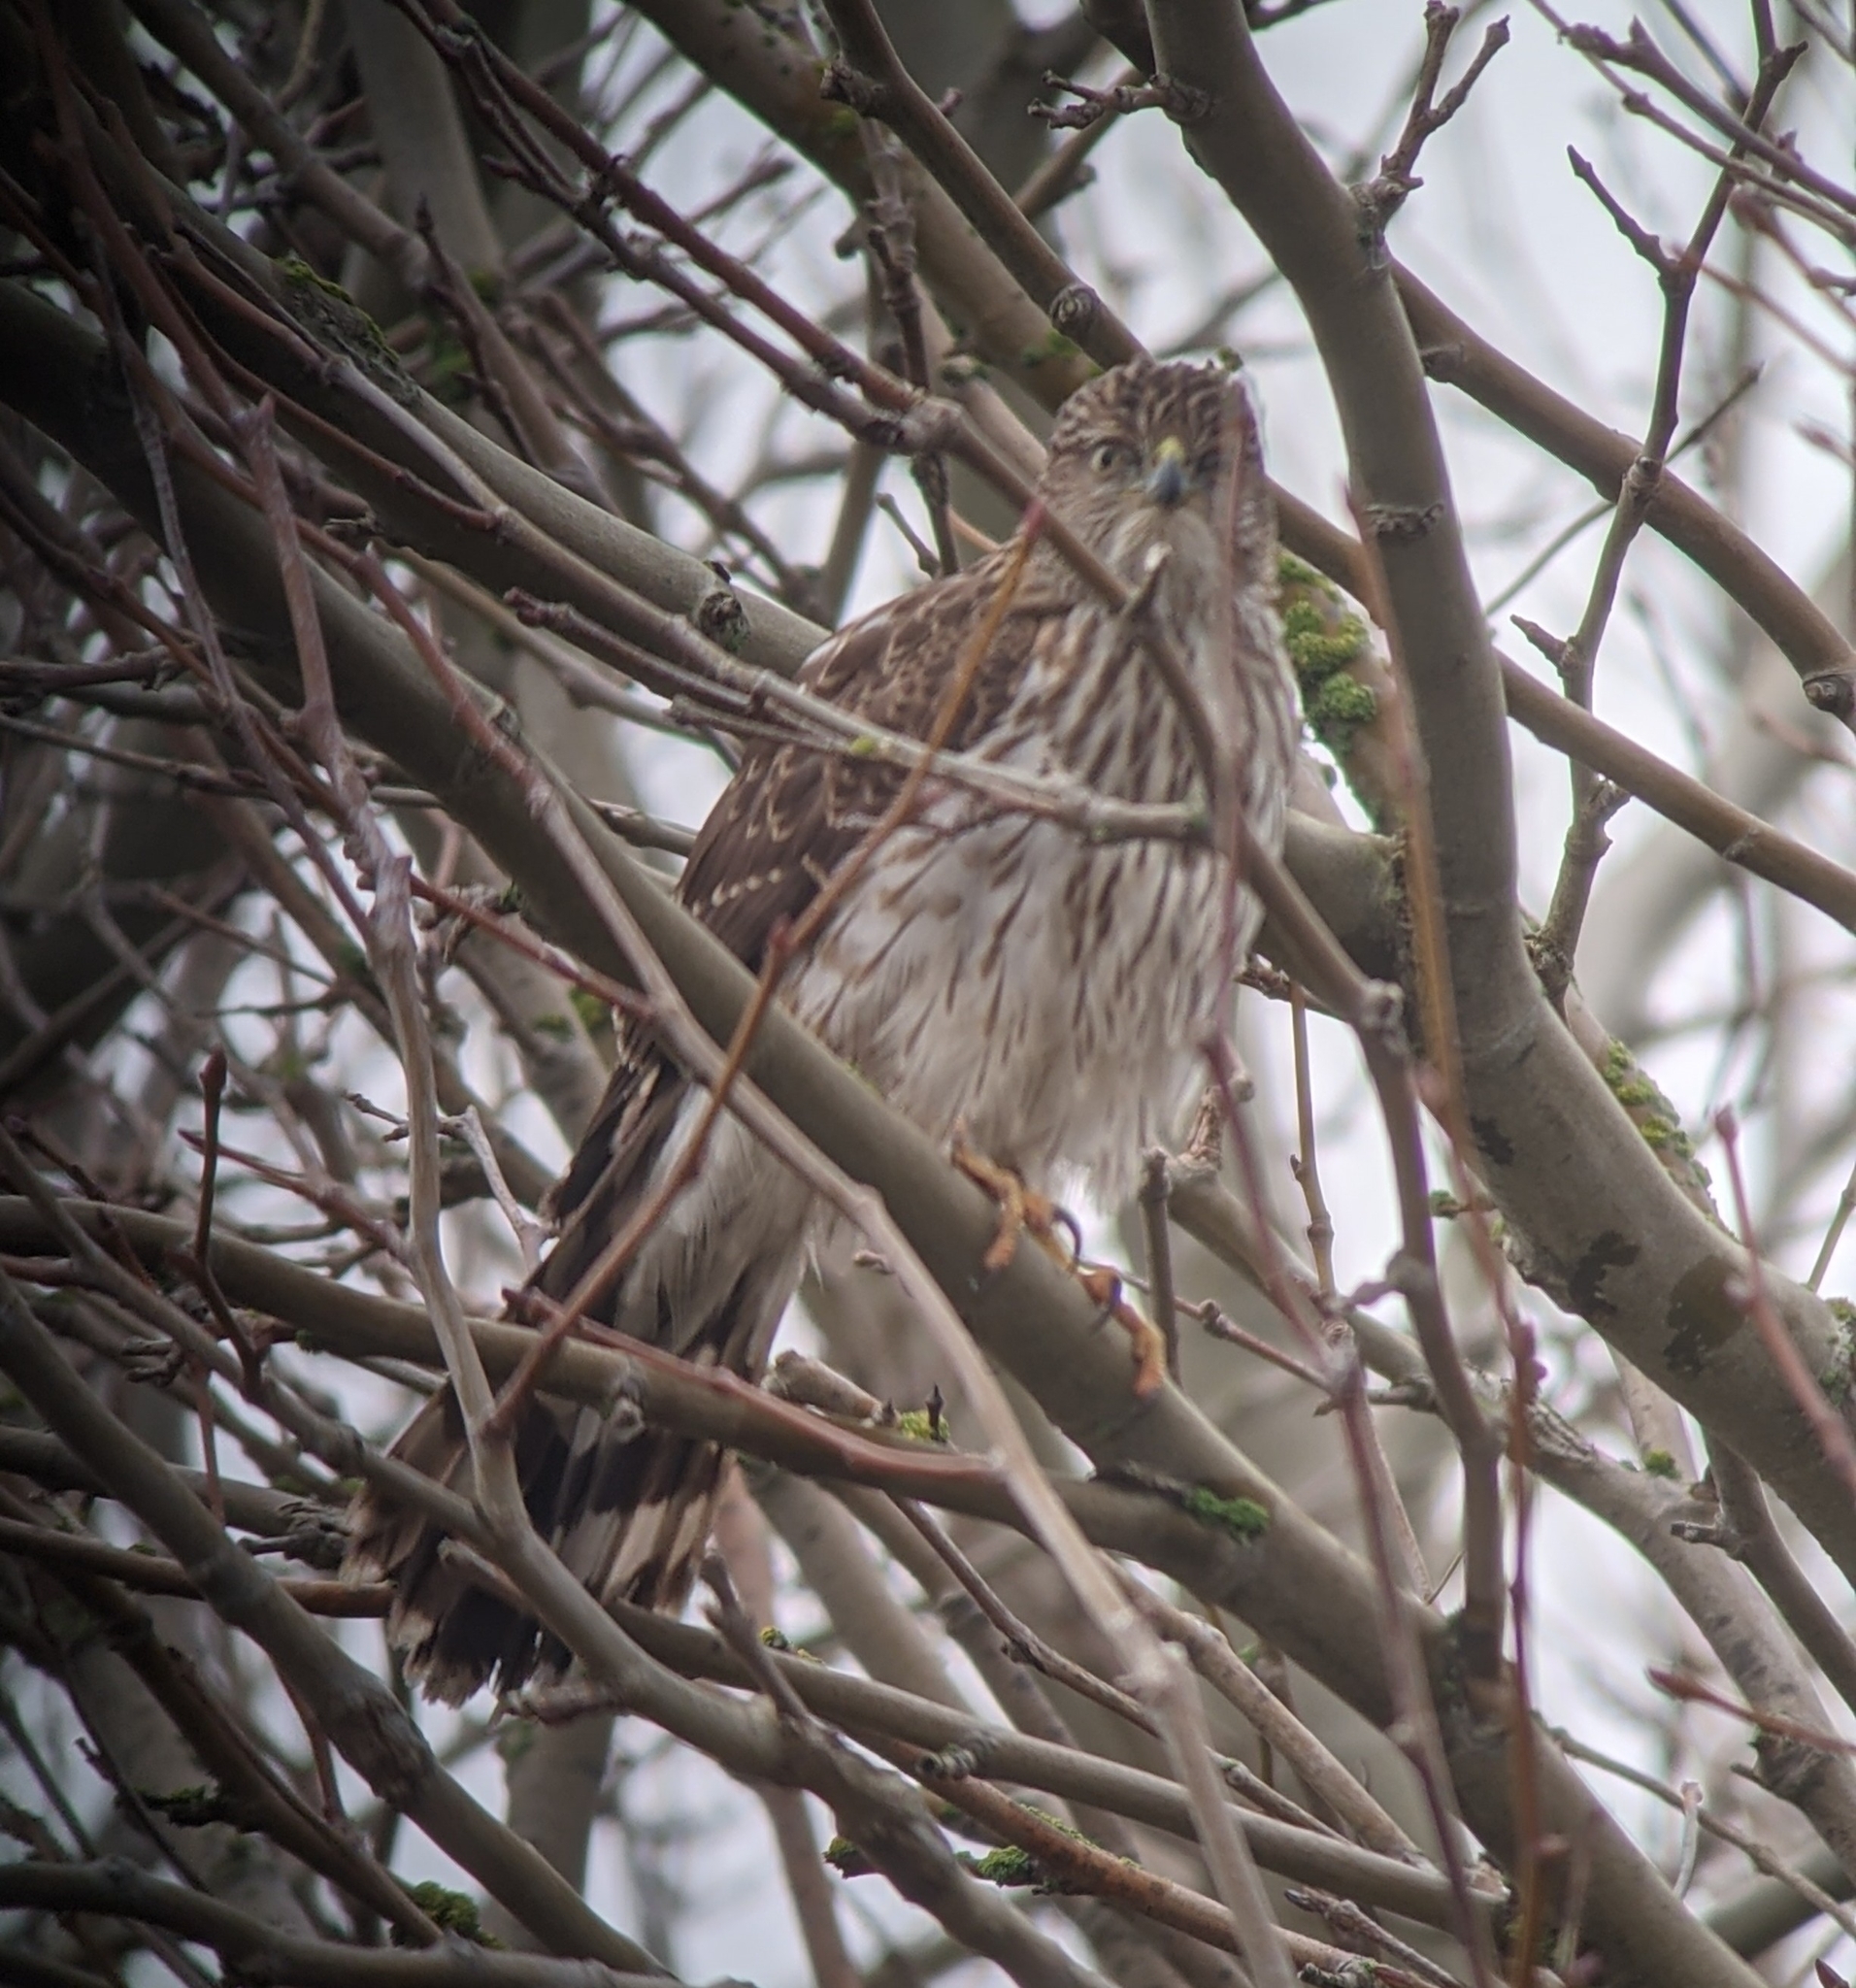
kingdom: Animalia
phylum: Chordata
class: Aves
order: Accipitriformes
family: Accipitridae
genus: Accipiter
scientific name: Accipiter cooperii
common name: Cooper's hawk
